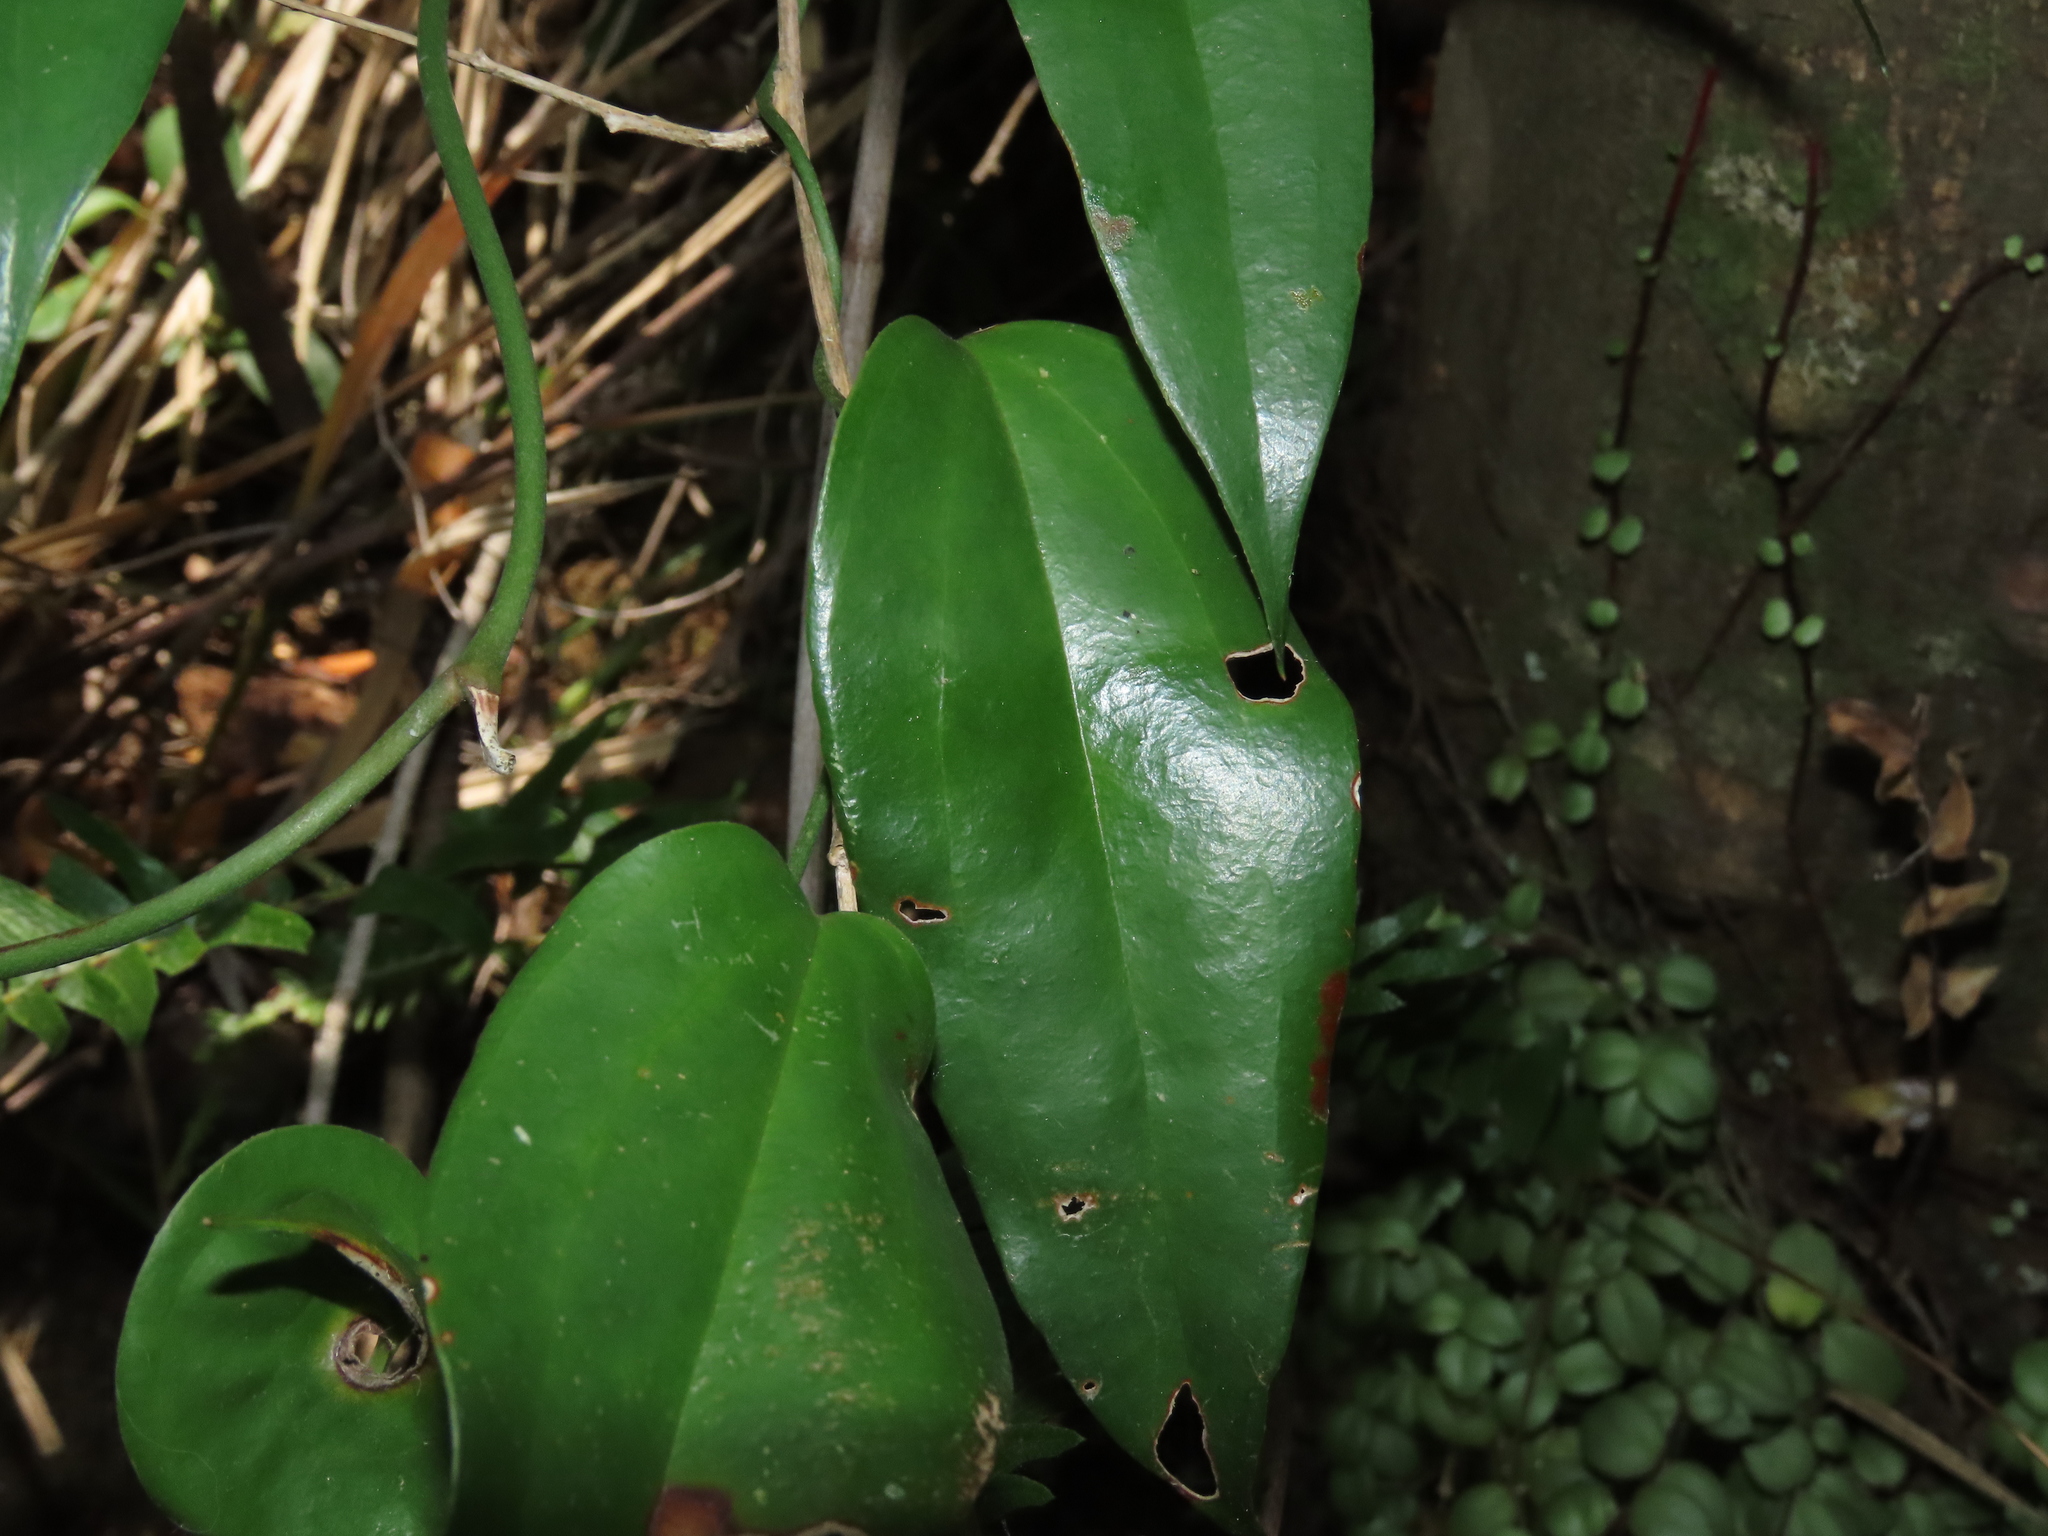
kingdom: Plantae
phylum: Tracheophyta
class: Liliopsida
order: Liliales
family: Philesiaceae
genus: Lapageria
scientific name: Lapageria rosea
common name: Chilean-bellflower
